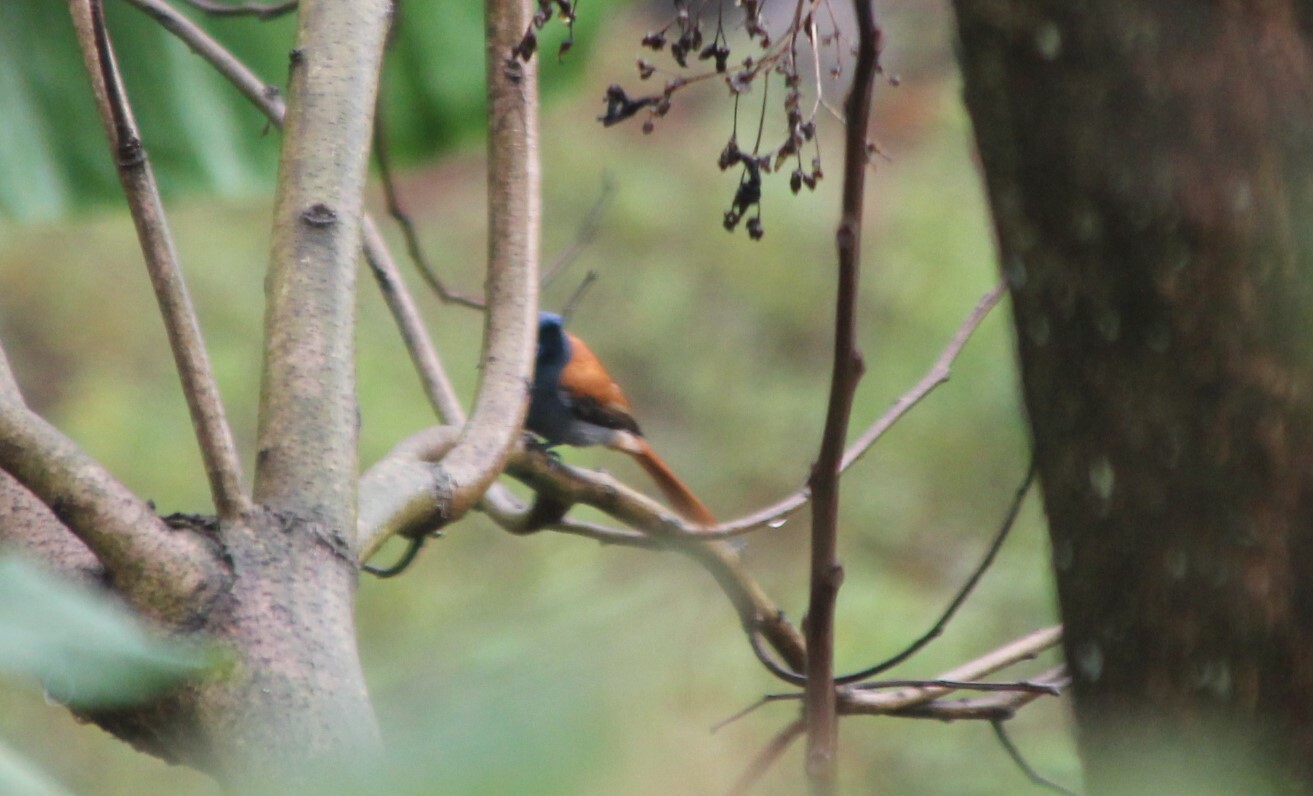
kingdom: Animalia
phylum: Chordata
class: Aves
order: Passeriformes
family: Monarchidae
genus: Terpsiphone
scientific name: Terpsiphone viridis
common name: African paradise flycatcher
